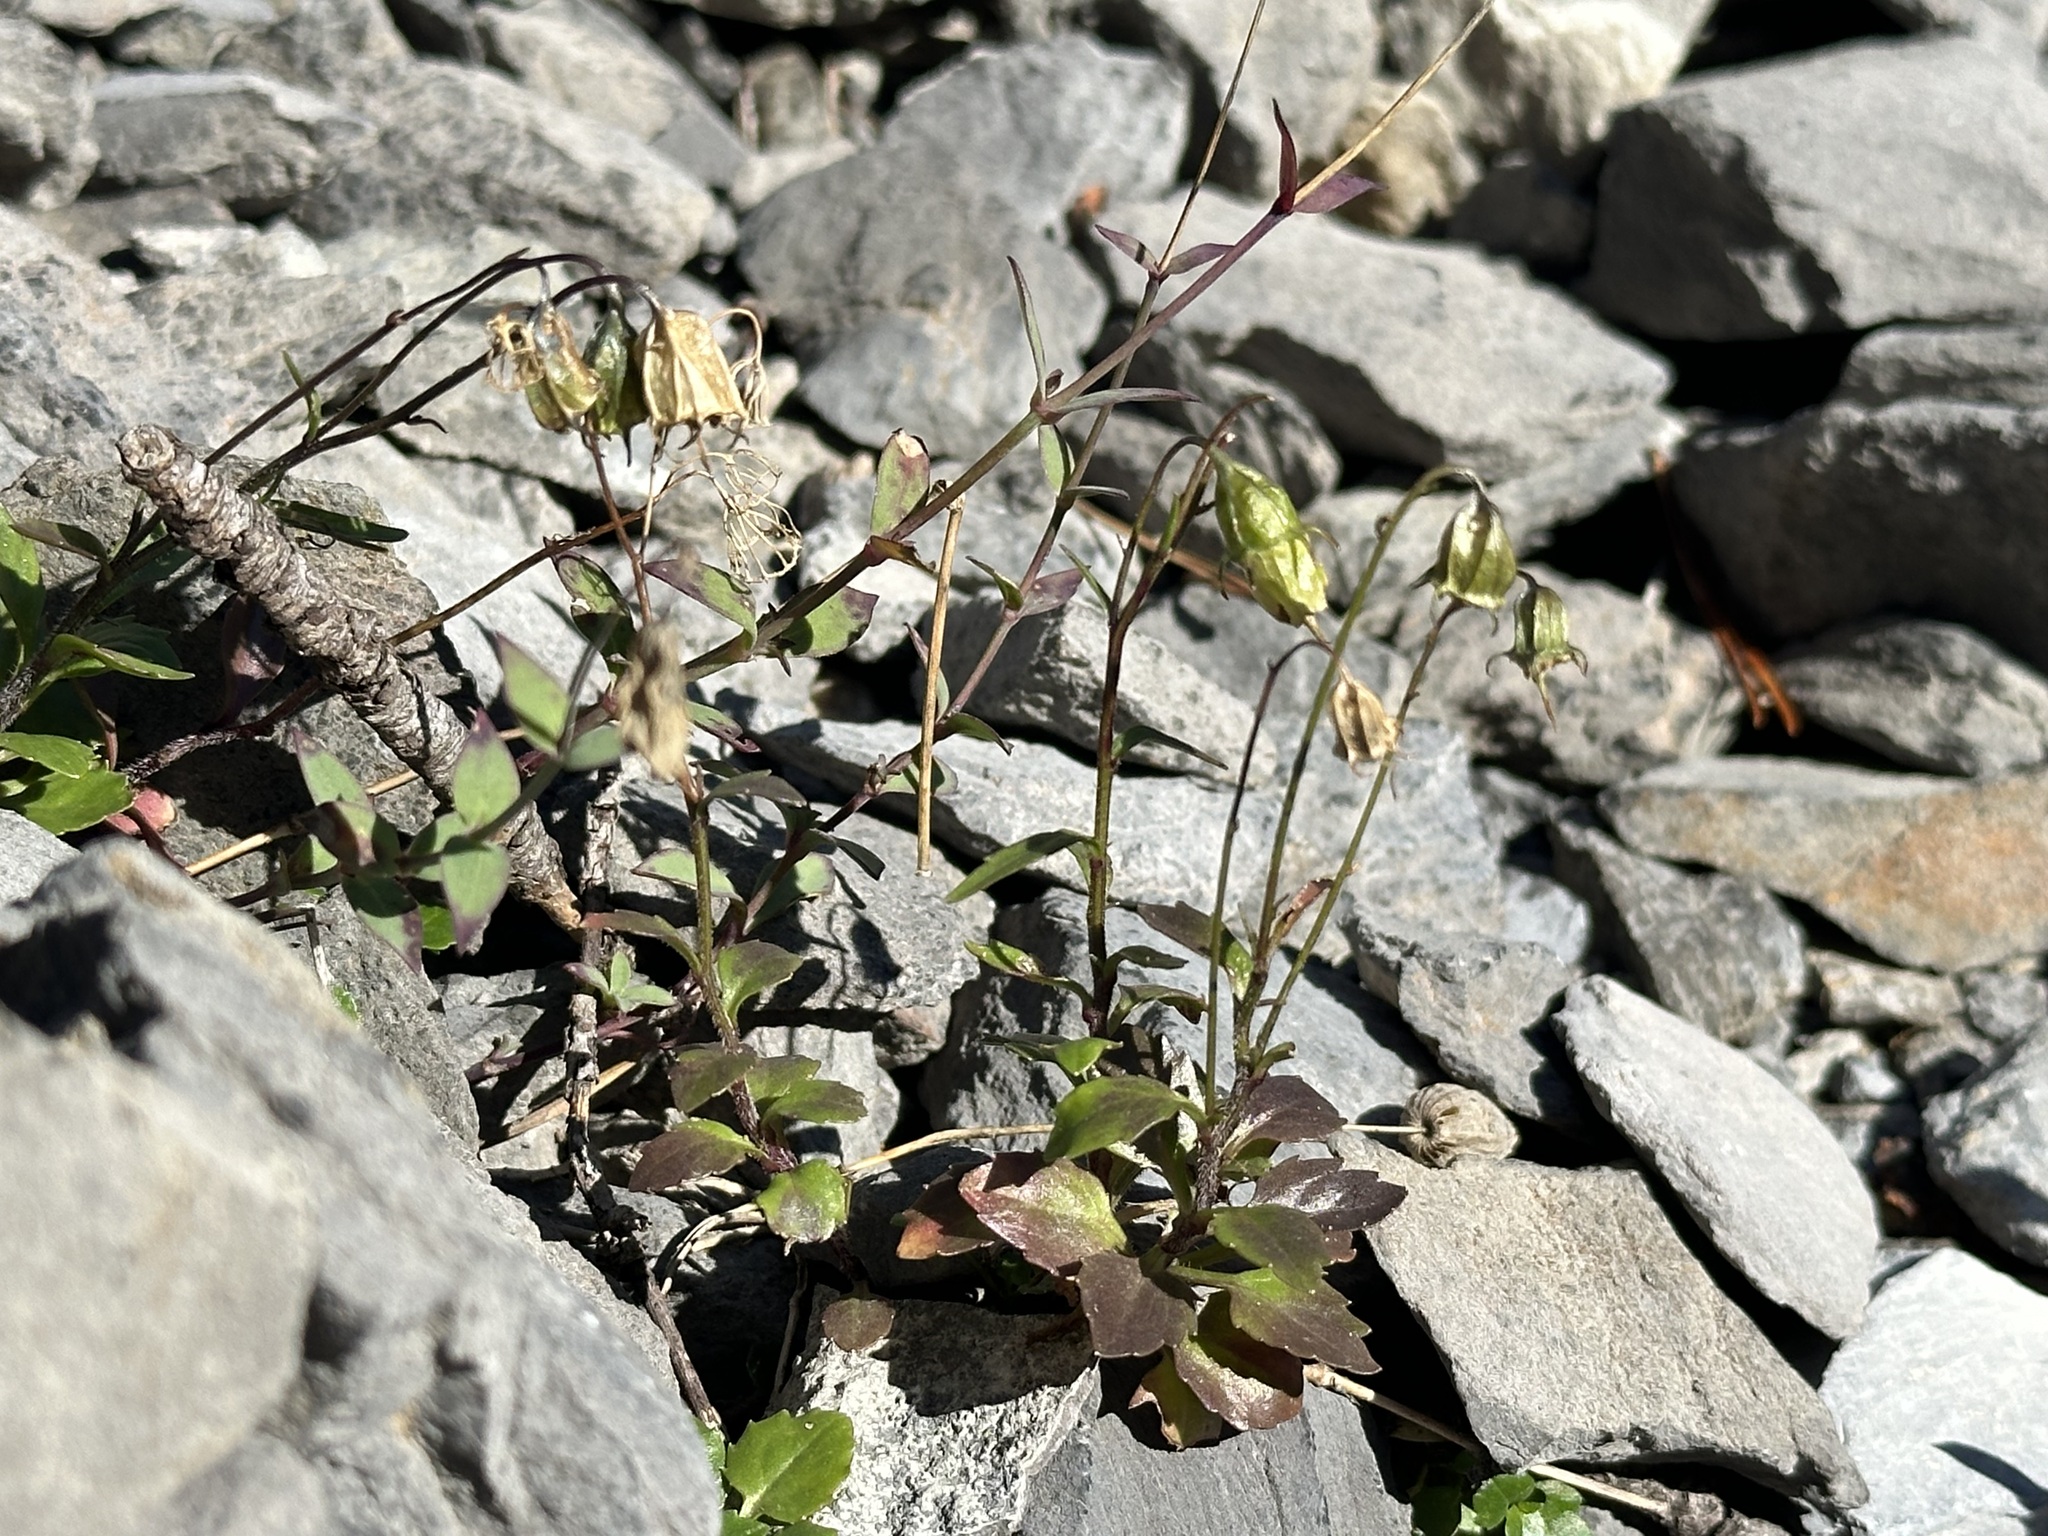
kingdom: Plantae
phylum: Tracheophyta
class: Magnoliopsida
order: Asterales
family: Campanulaceae
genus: Campanula
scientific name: Campanula cochleariifolia
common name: Fairies'-thimbles
